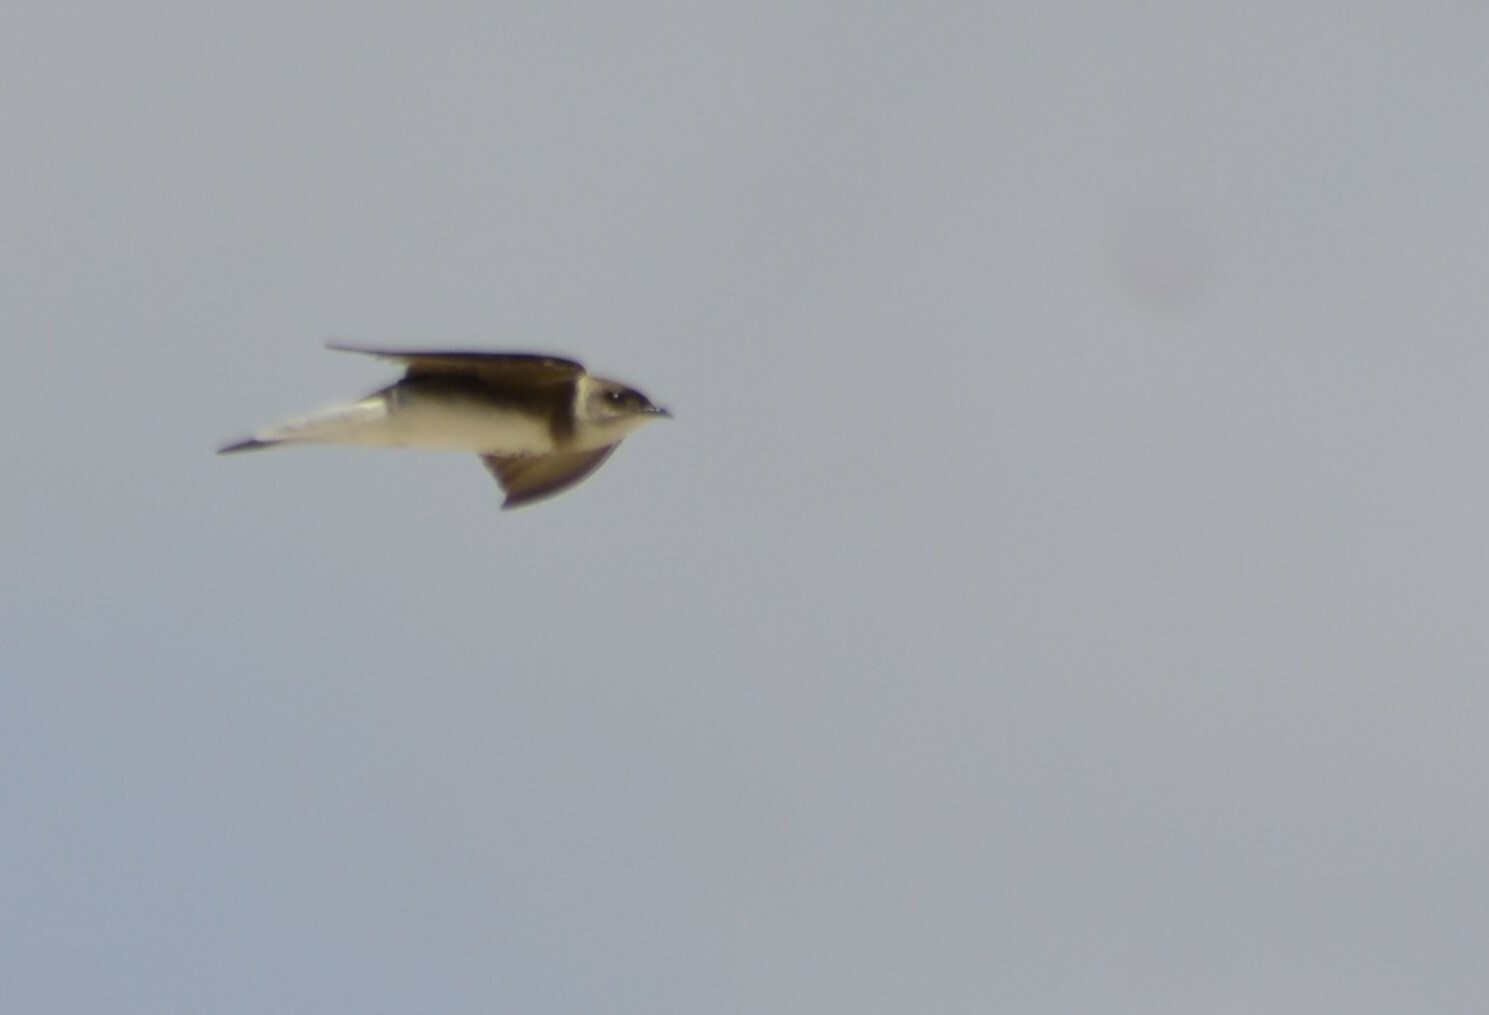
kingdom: Animalia
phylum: Chordata
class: Aves
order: Passeriformes
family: Hirundinidae
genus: Progne
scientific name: Progne tapera
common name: Brown-chested martin
